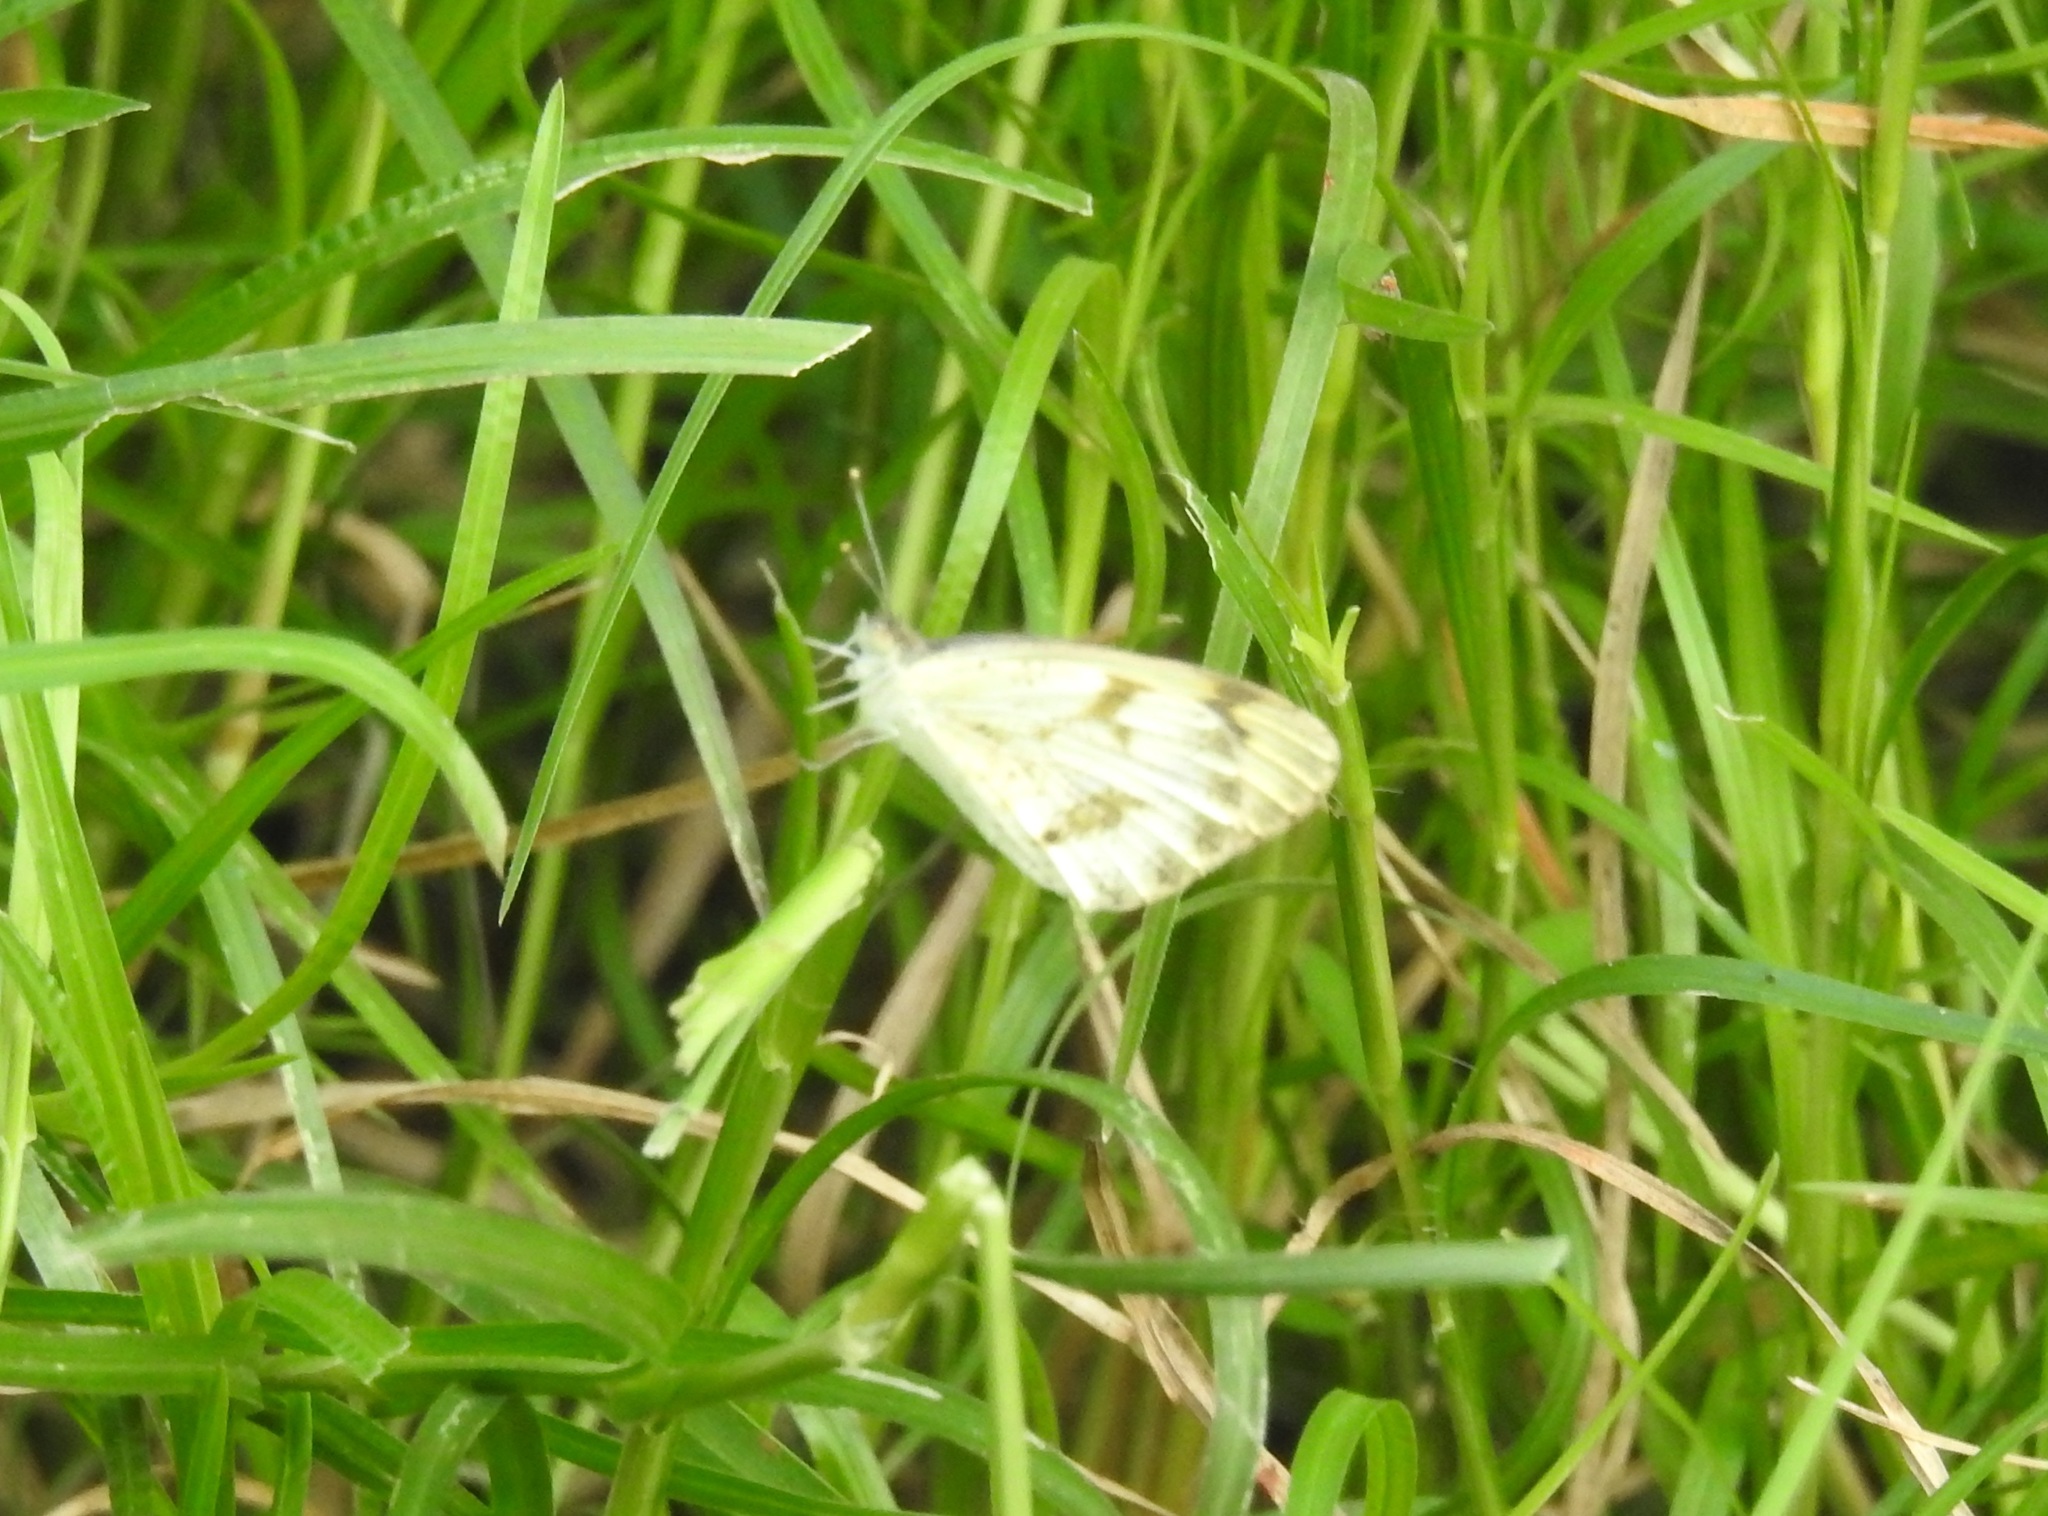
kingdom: Animalia
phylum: Arthropoda
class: Insecta
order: Lepidoptera
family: Pieridae
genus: Colotis
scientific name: Colotis aurora
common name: Plain orange-tip
